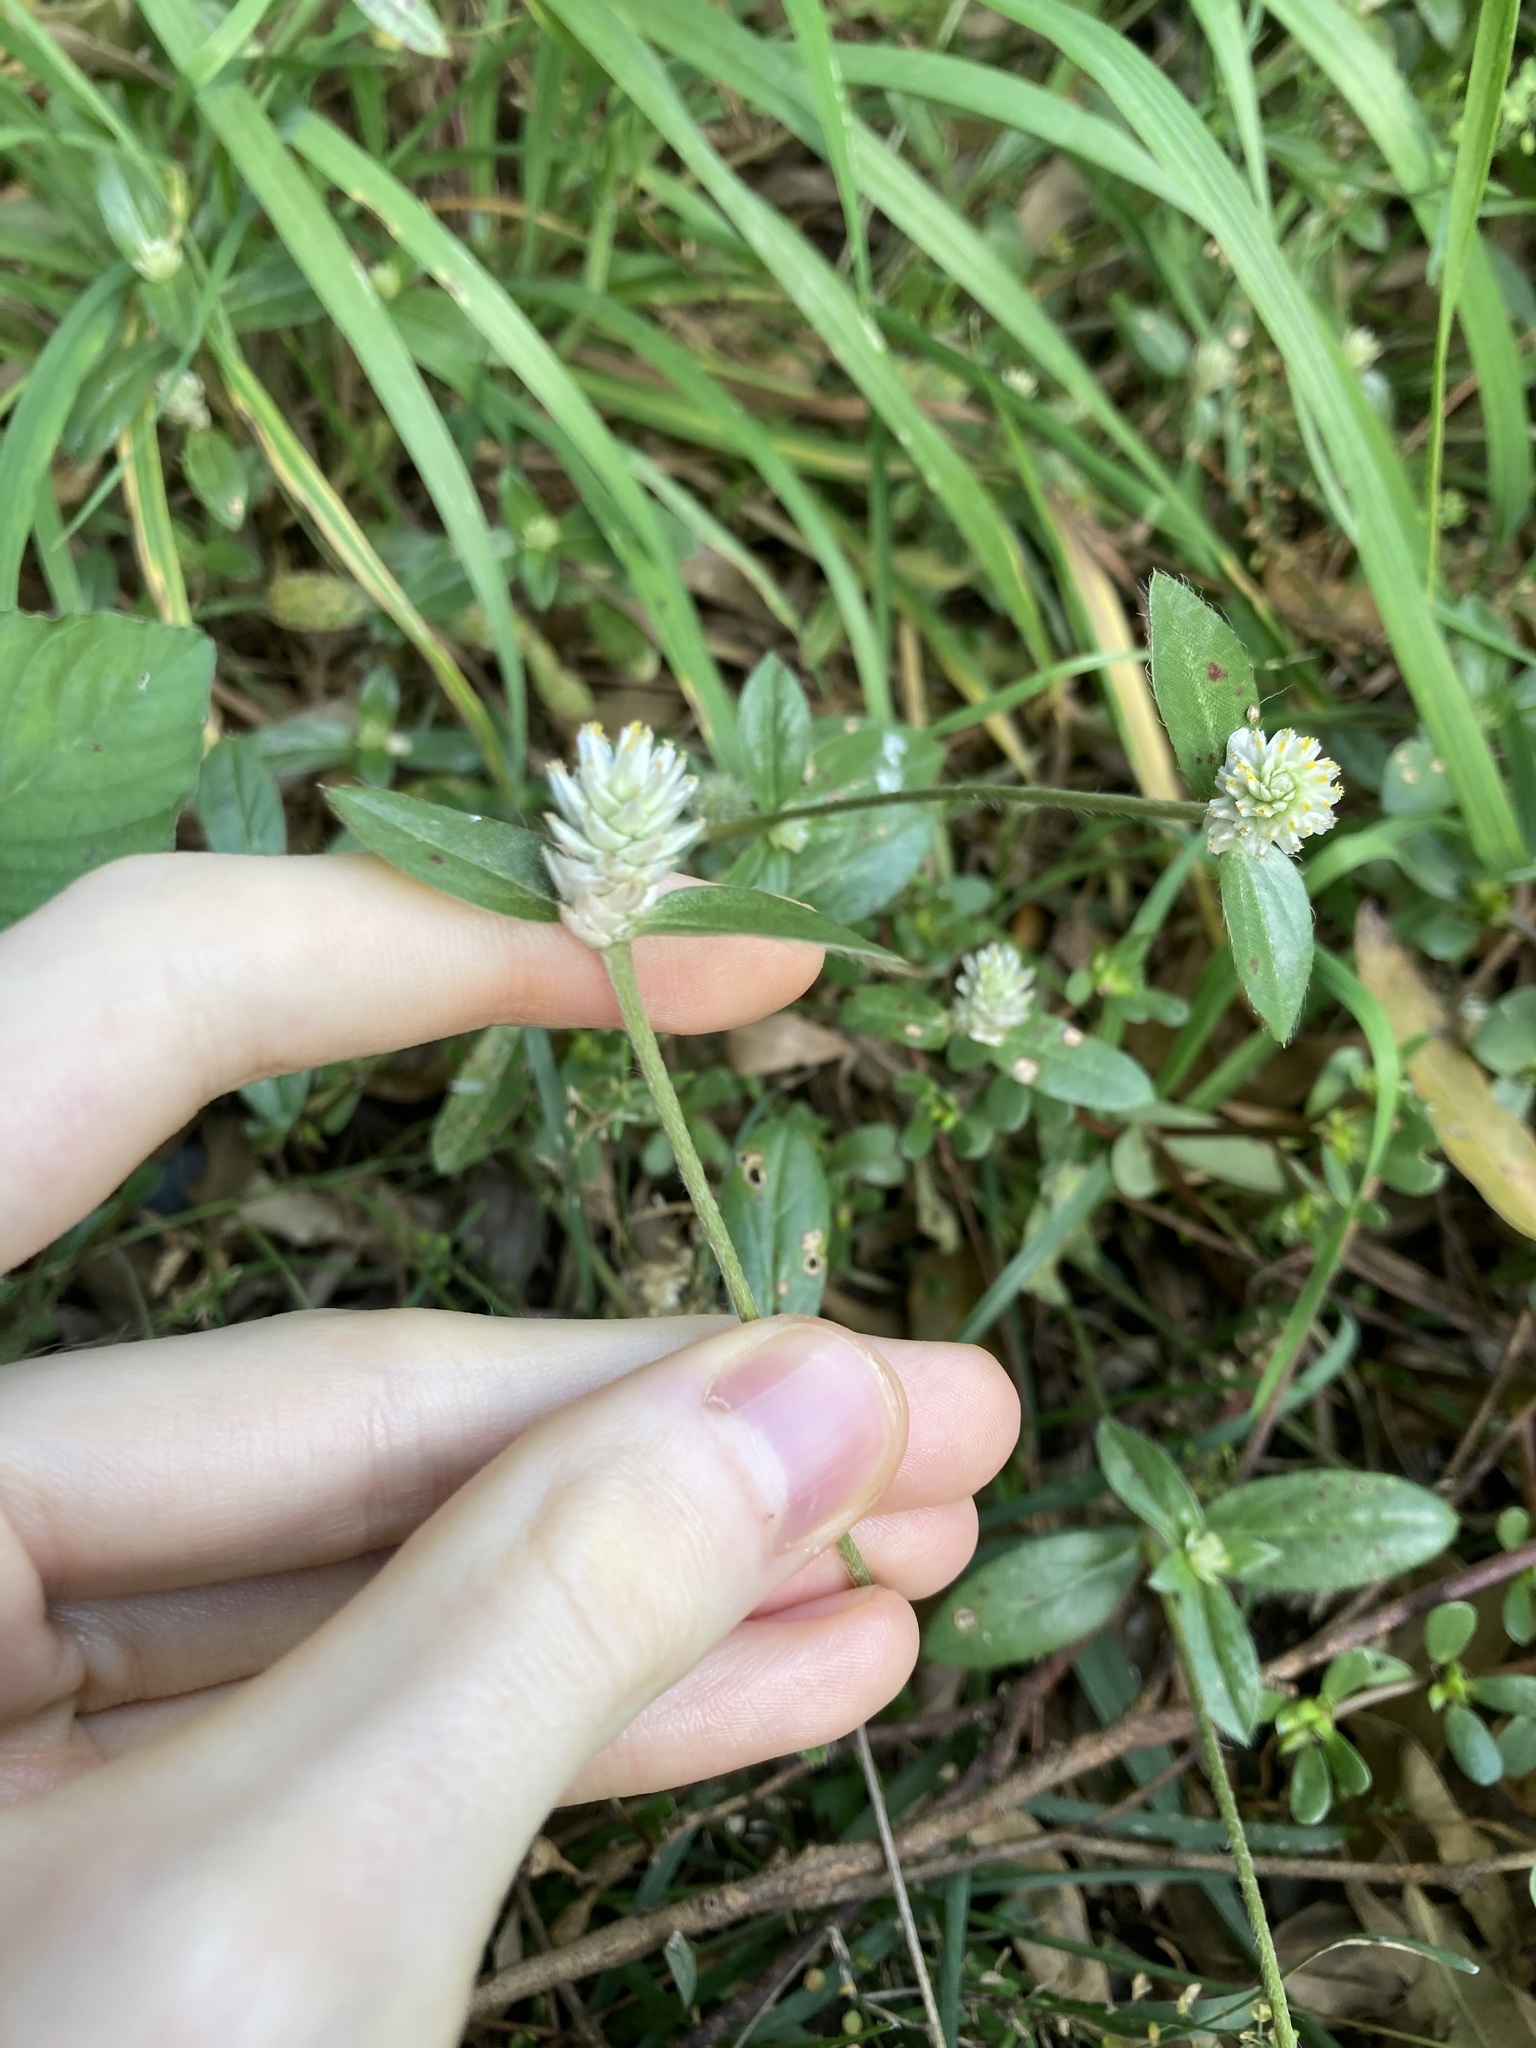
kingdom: Plantae
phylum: Tracheophyta
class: Magnoliopsida
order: Caryophyllales
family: Amaranthaceae
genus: Gomphrena
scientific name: Gomphrena celosioides
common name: Gomphrena-weed
